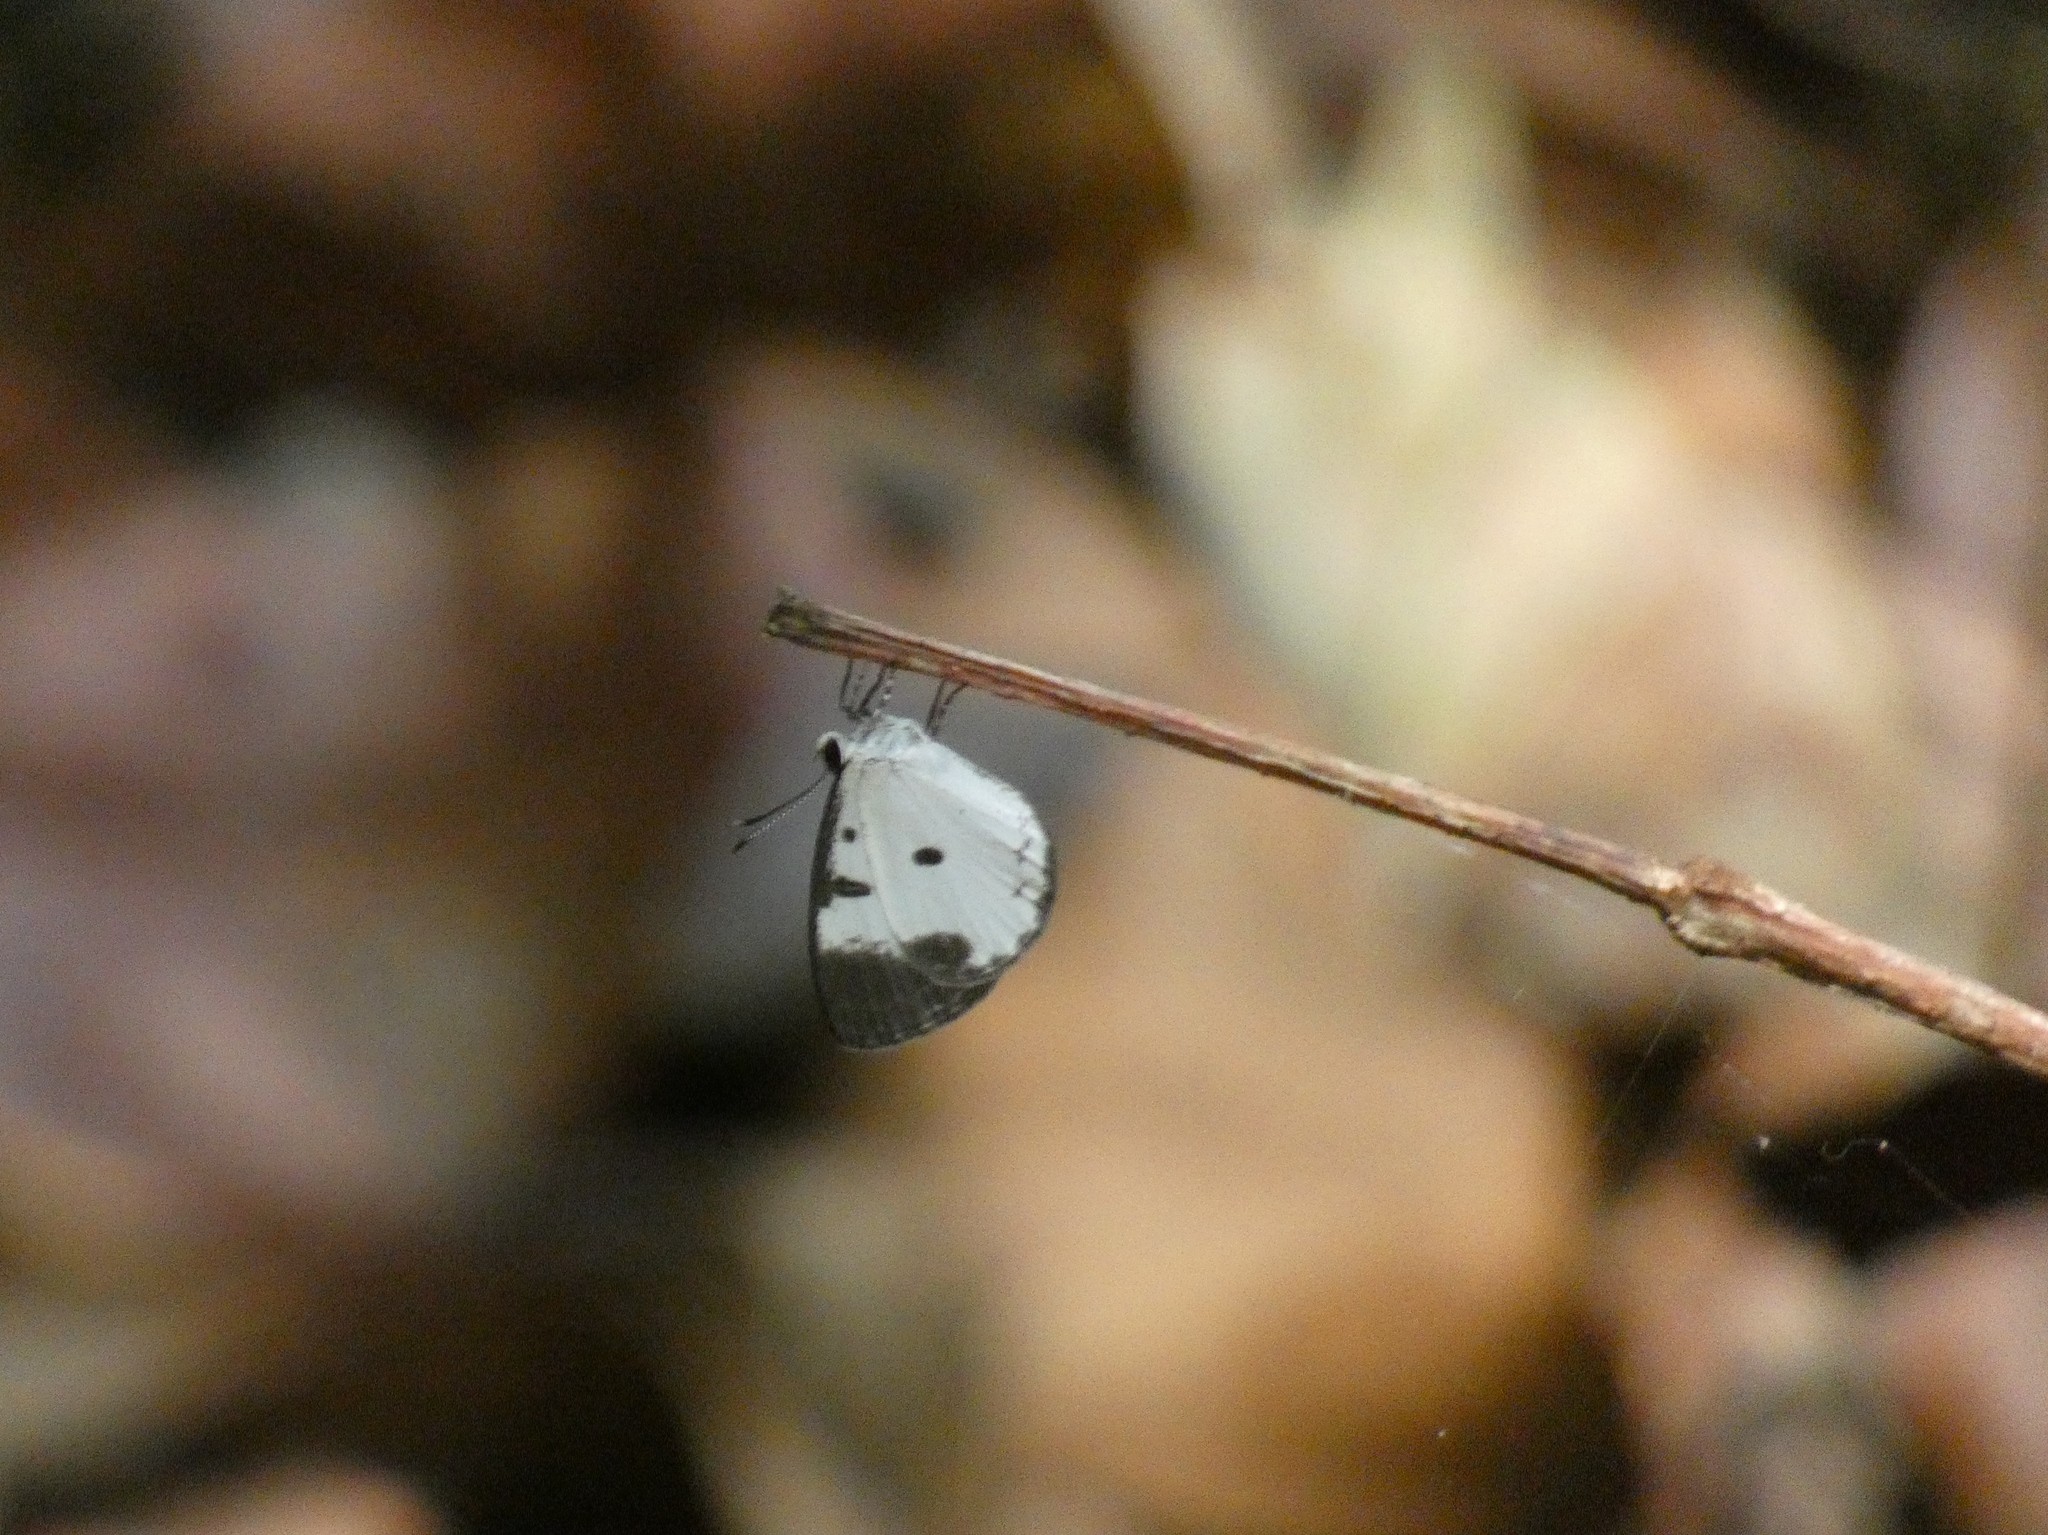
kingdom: Animalia
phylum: Arthropoda
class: Insecta
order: Lepidoptera
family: Lycaenidae
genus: Tetrarhanis
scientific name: Tetrarhanis stempfferi
